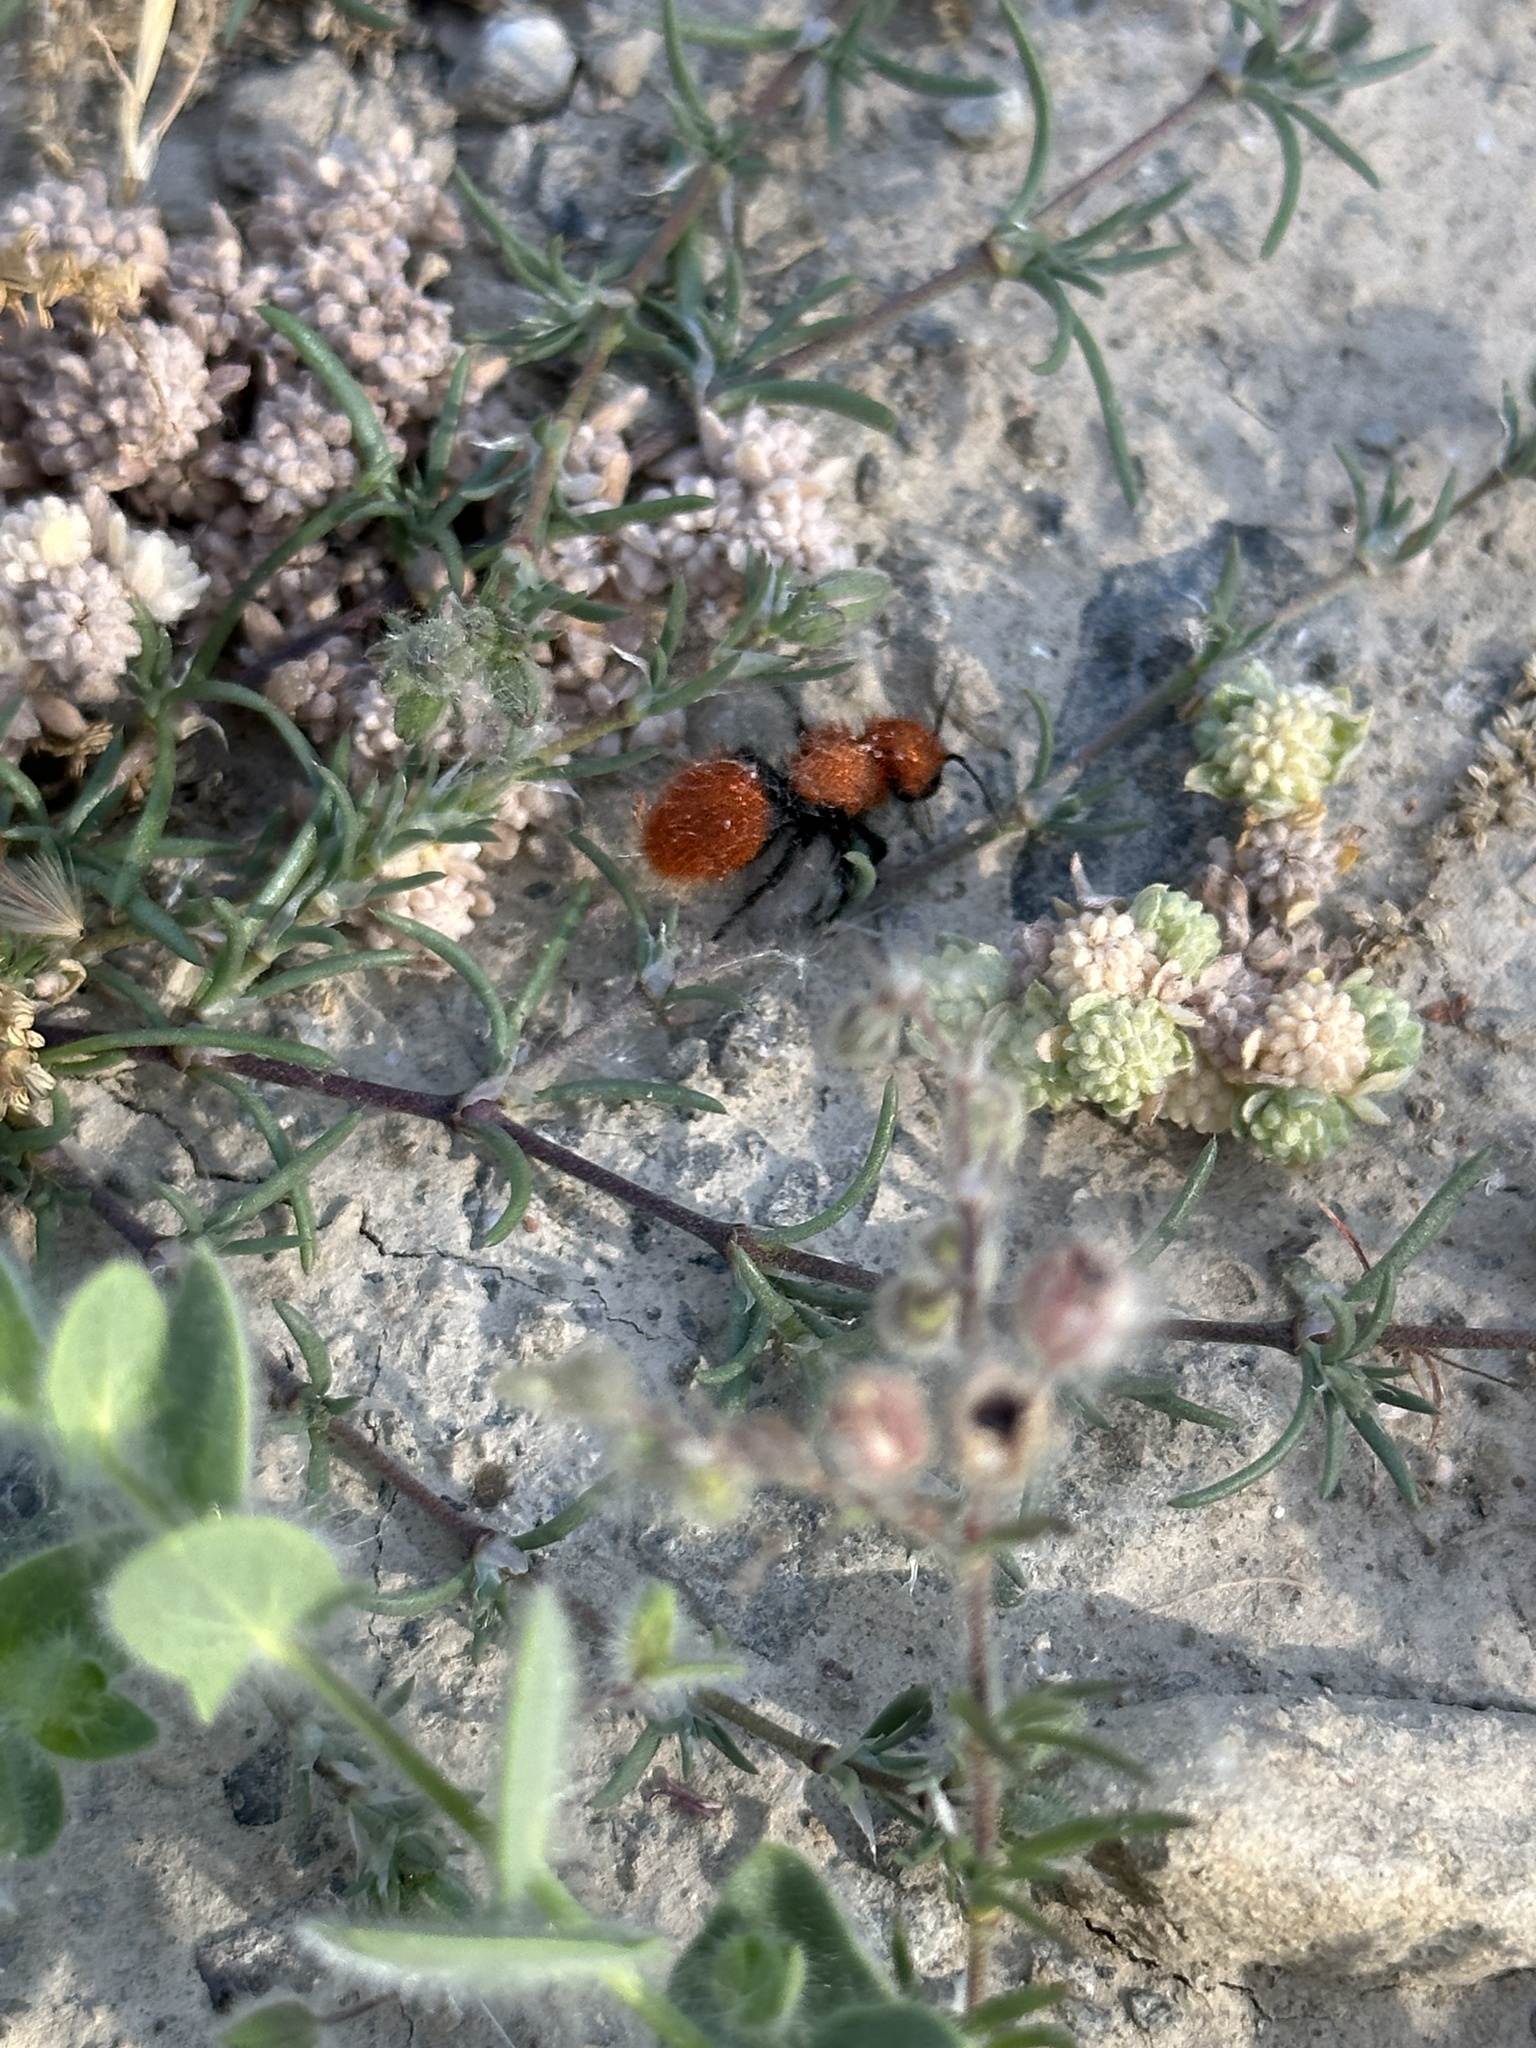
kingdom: Animalia
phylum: Arthropoda
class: Insecta
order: Hymenoptera
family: Mutillidae
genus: Dasymutilla
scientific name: Dasymutilla
